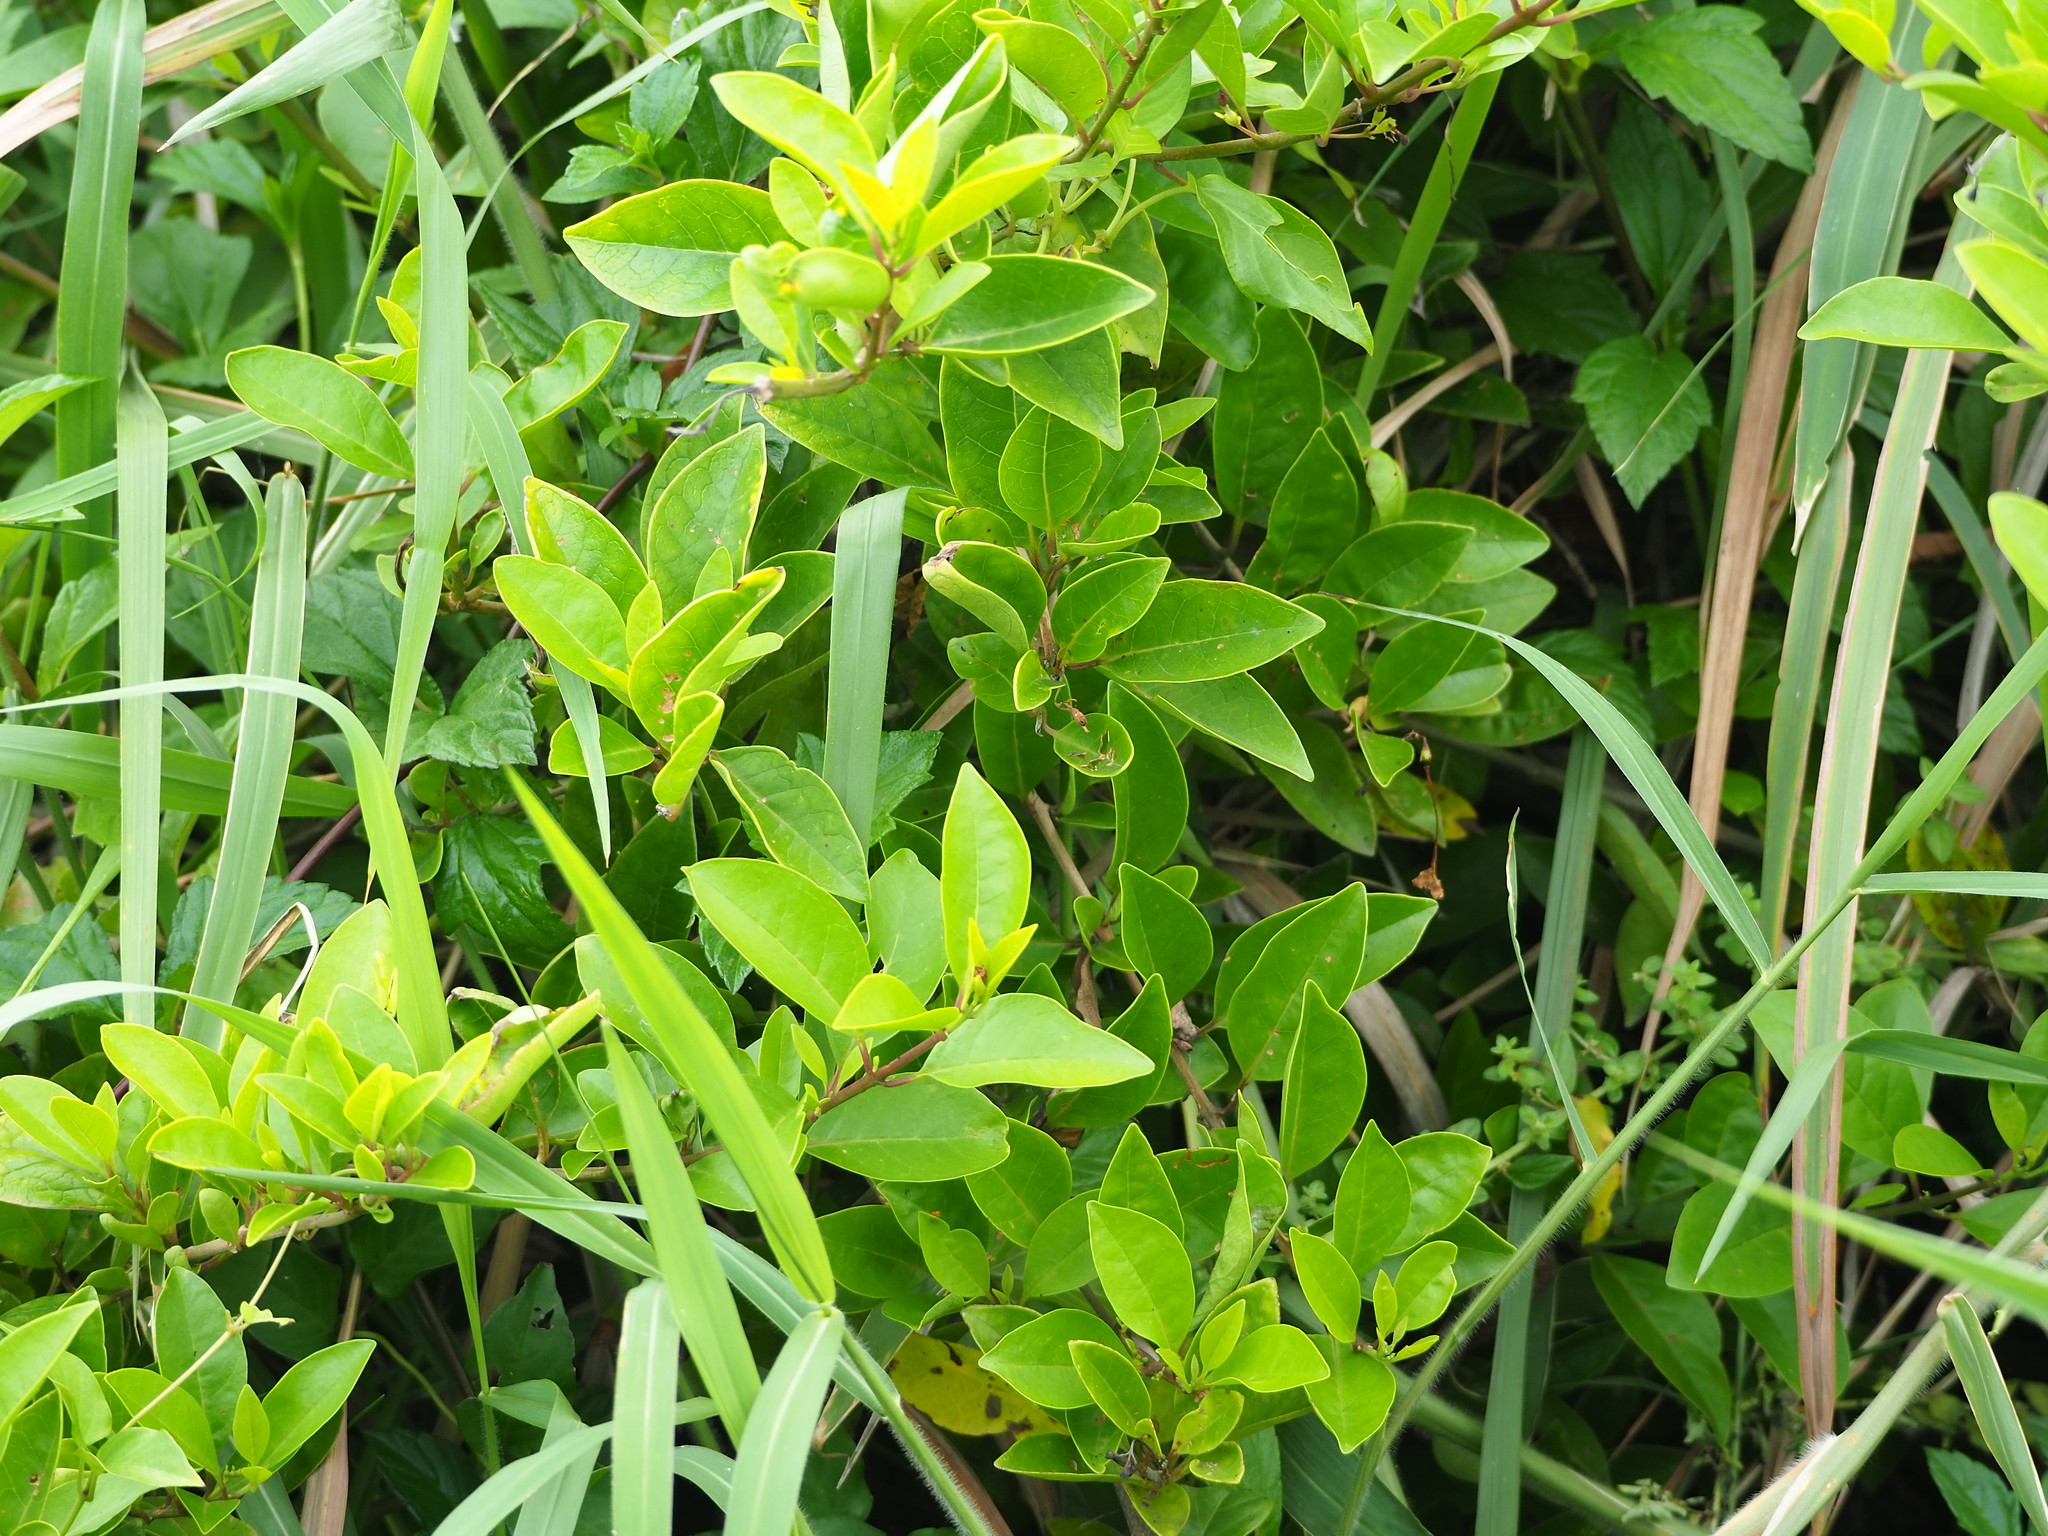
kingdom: Plantae
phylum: Tracheophyta
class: Magnoliopsida
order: Lamiales
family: Lamiaceae
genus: Volkameria
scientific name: Volkameria inermis
